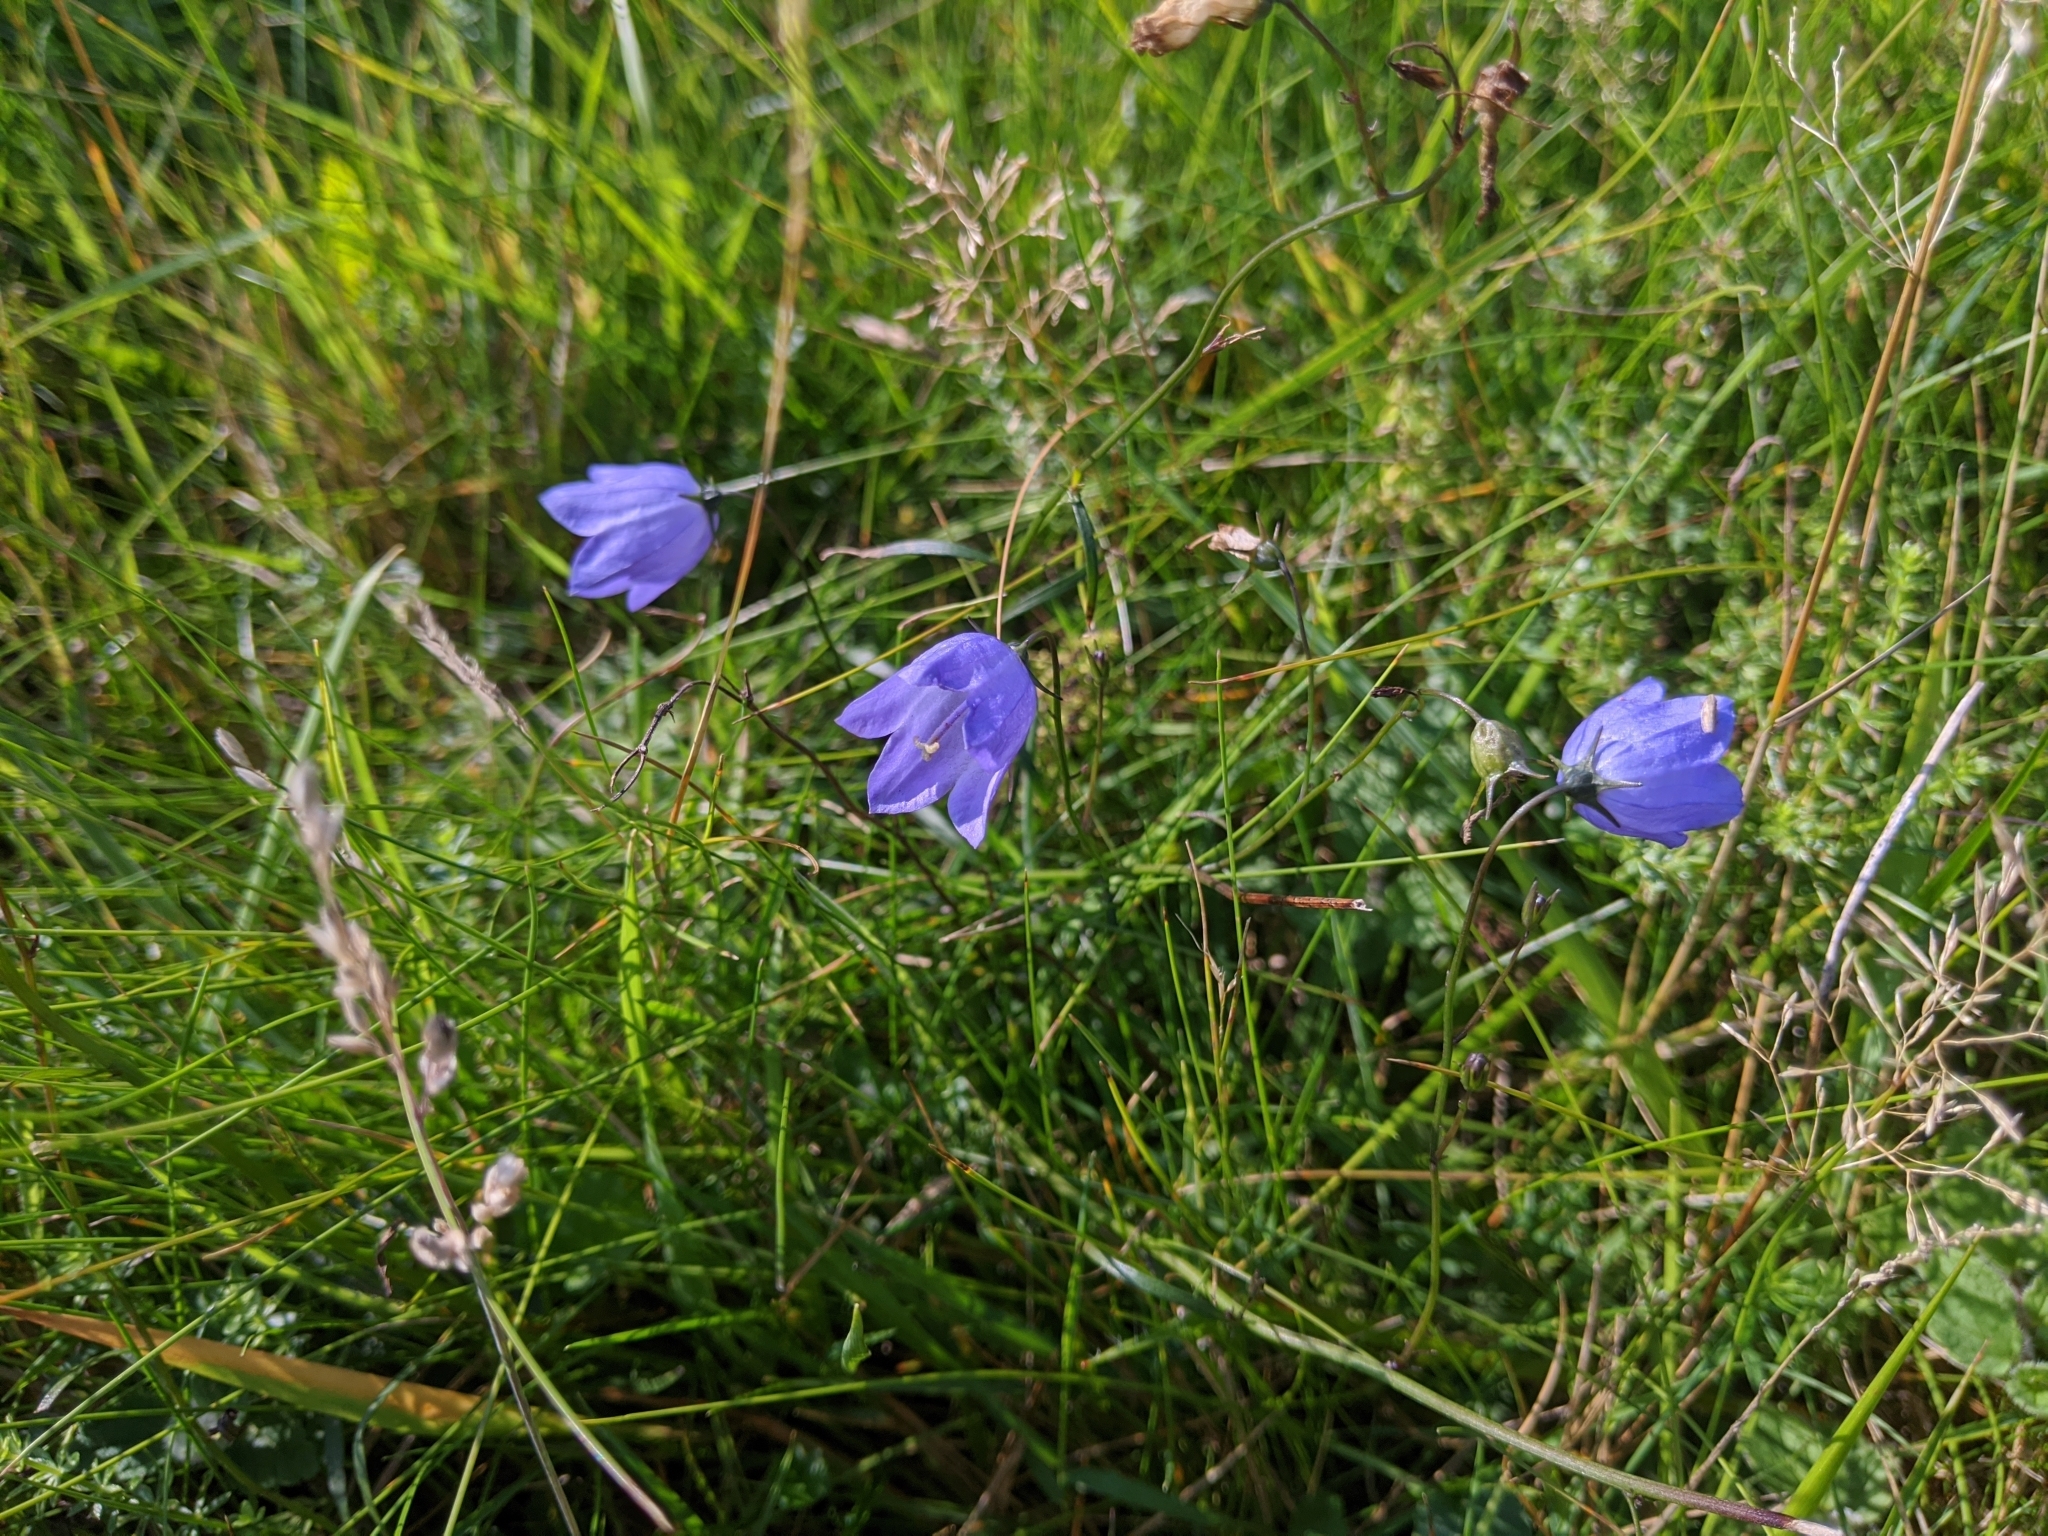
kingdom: Plantae
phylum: Tracheophyta
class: Magnoliopsida
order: Asterales
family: Campanulaceae
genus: Campanula
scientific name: Campanula rotundifolia
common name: Harebell
